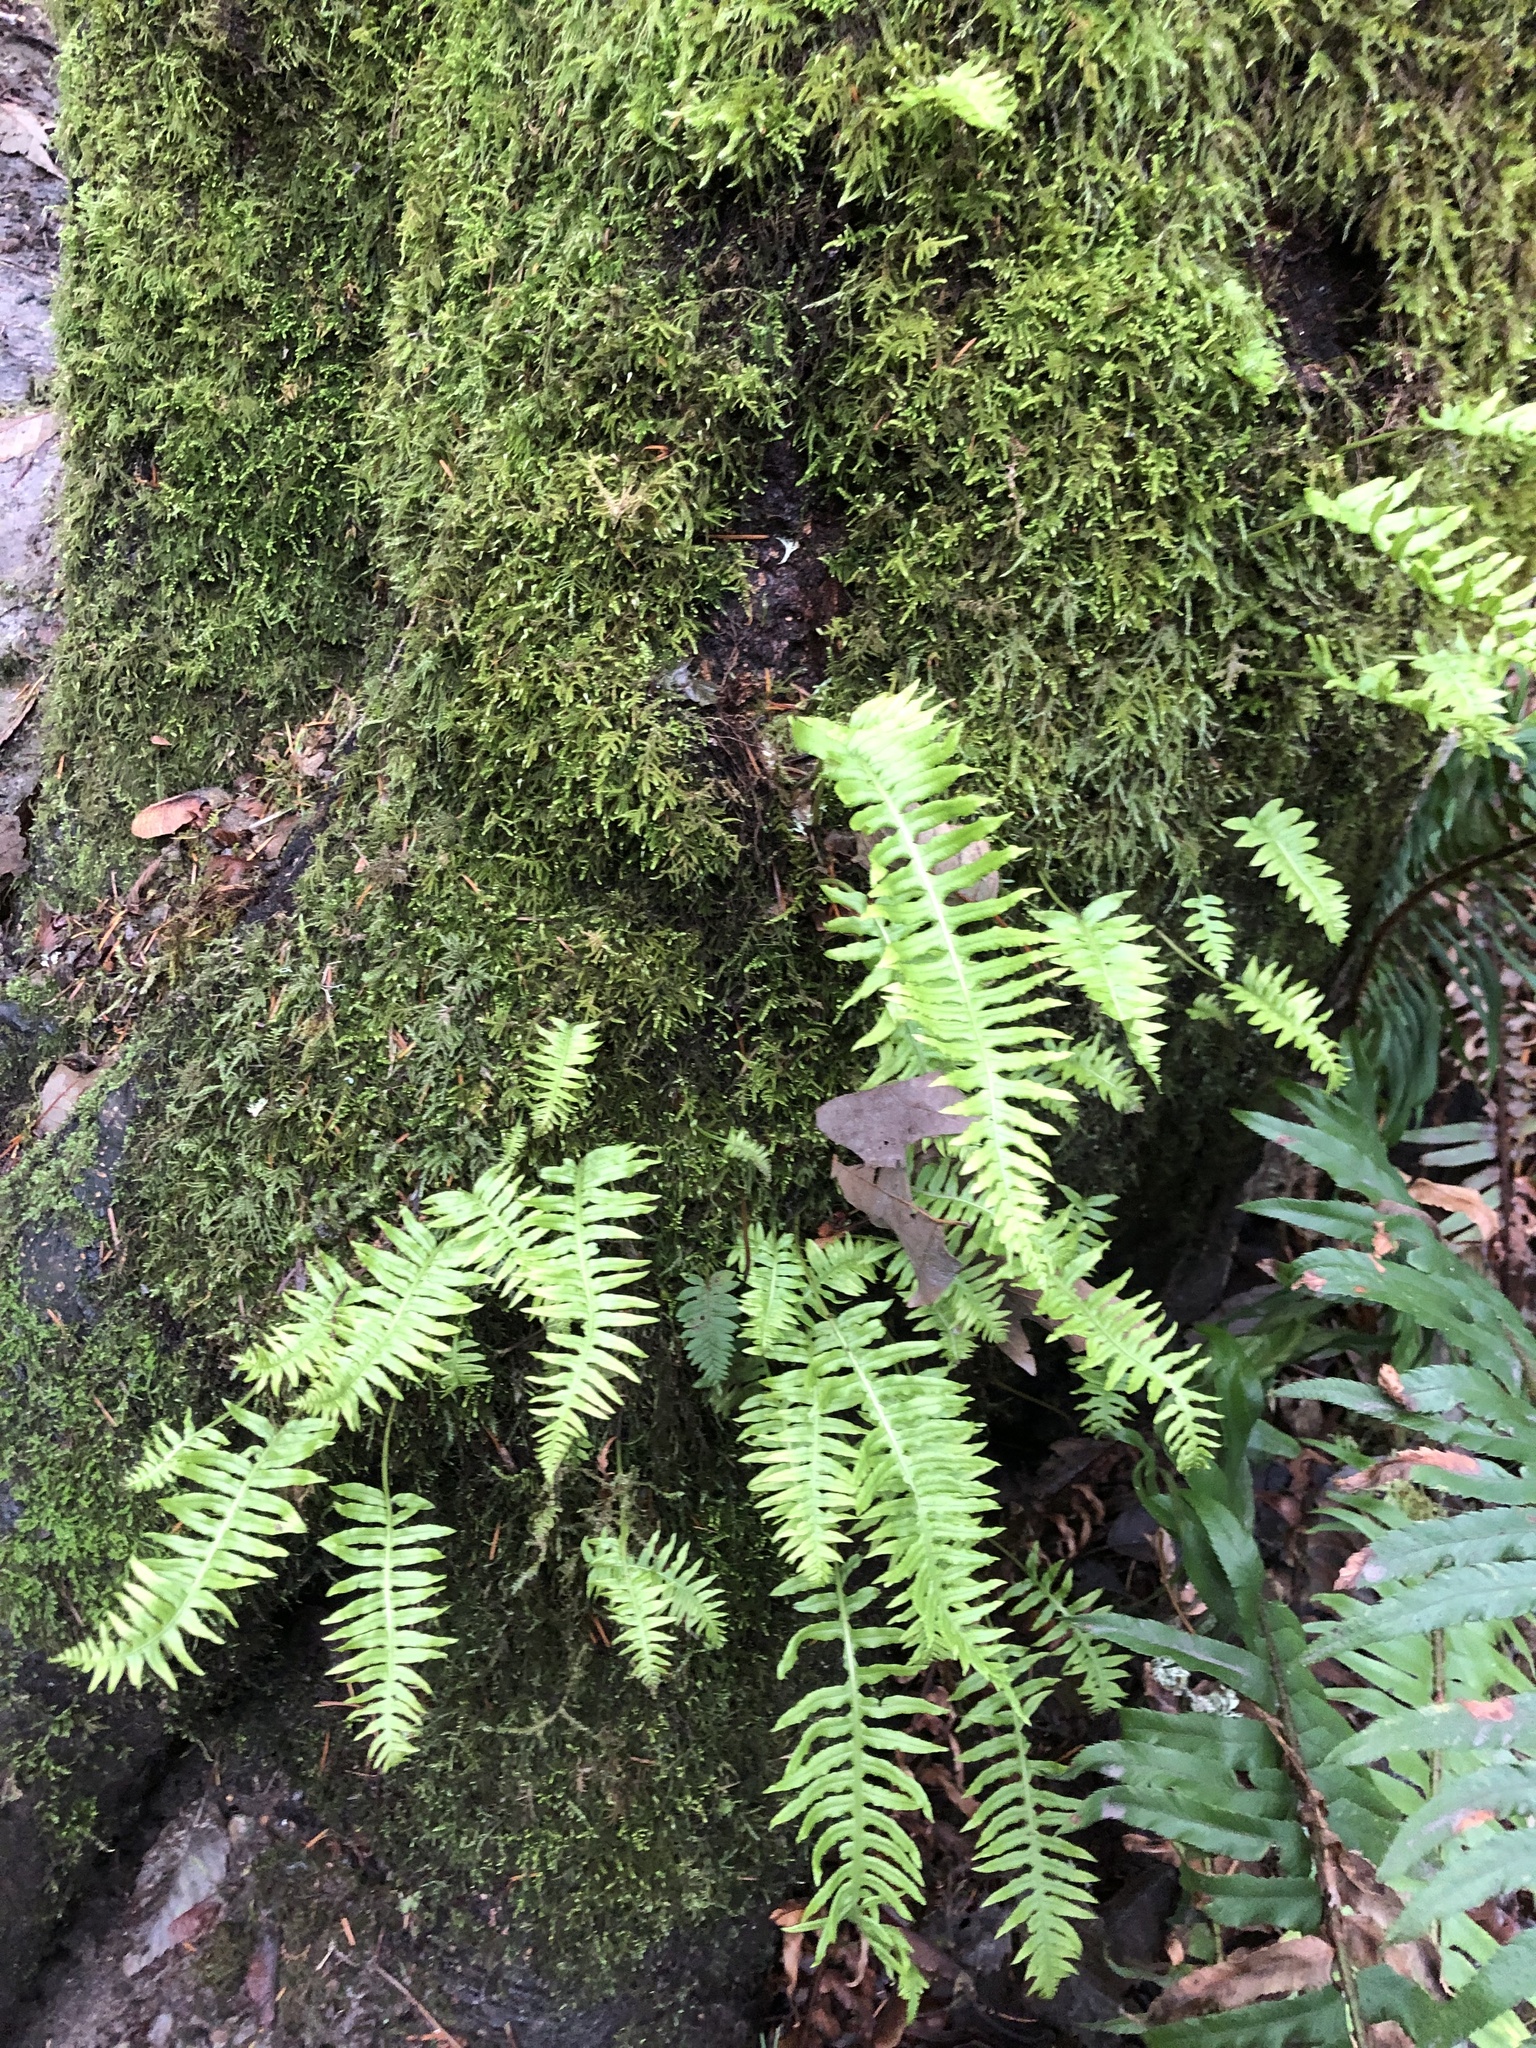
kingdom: Plantae
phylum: Tracheophyta
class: Polypodiopsida
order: Polypodiales
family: Polypodiaceae
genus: Polypodium
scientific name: Polypodium glycyrrhiza
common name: Licorice fern
